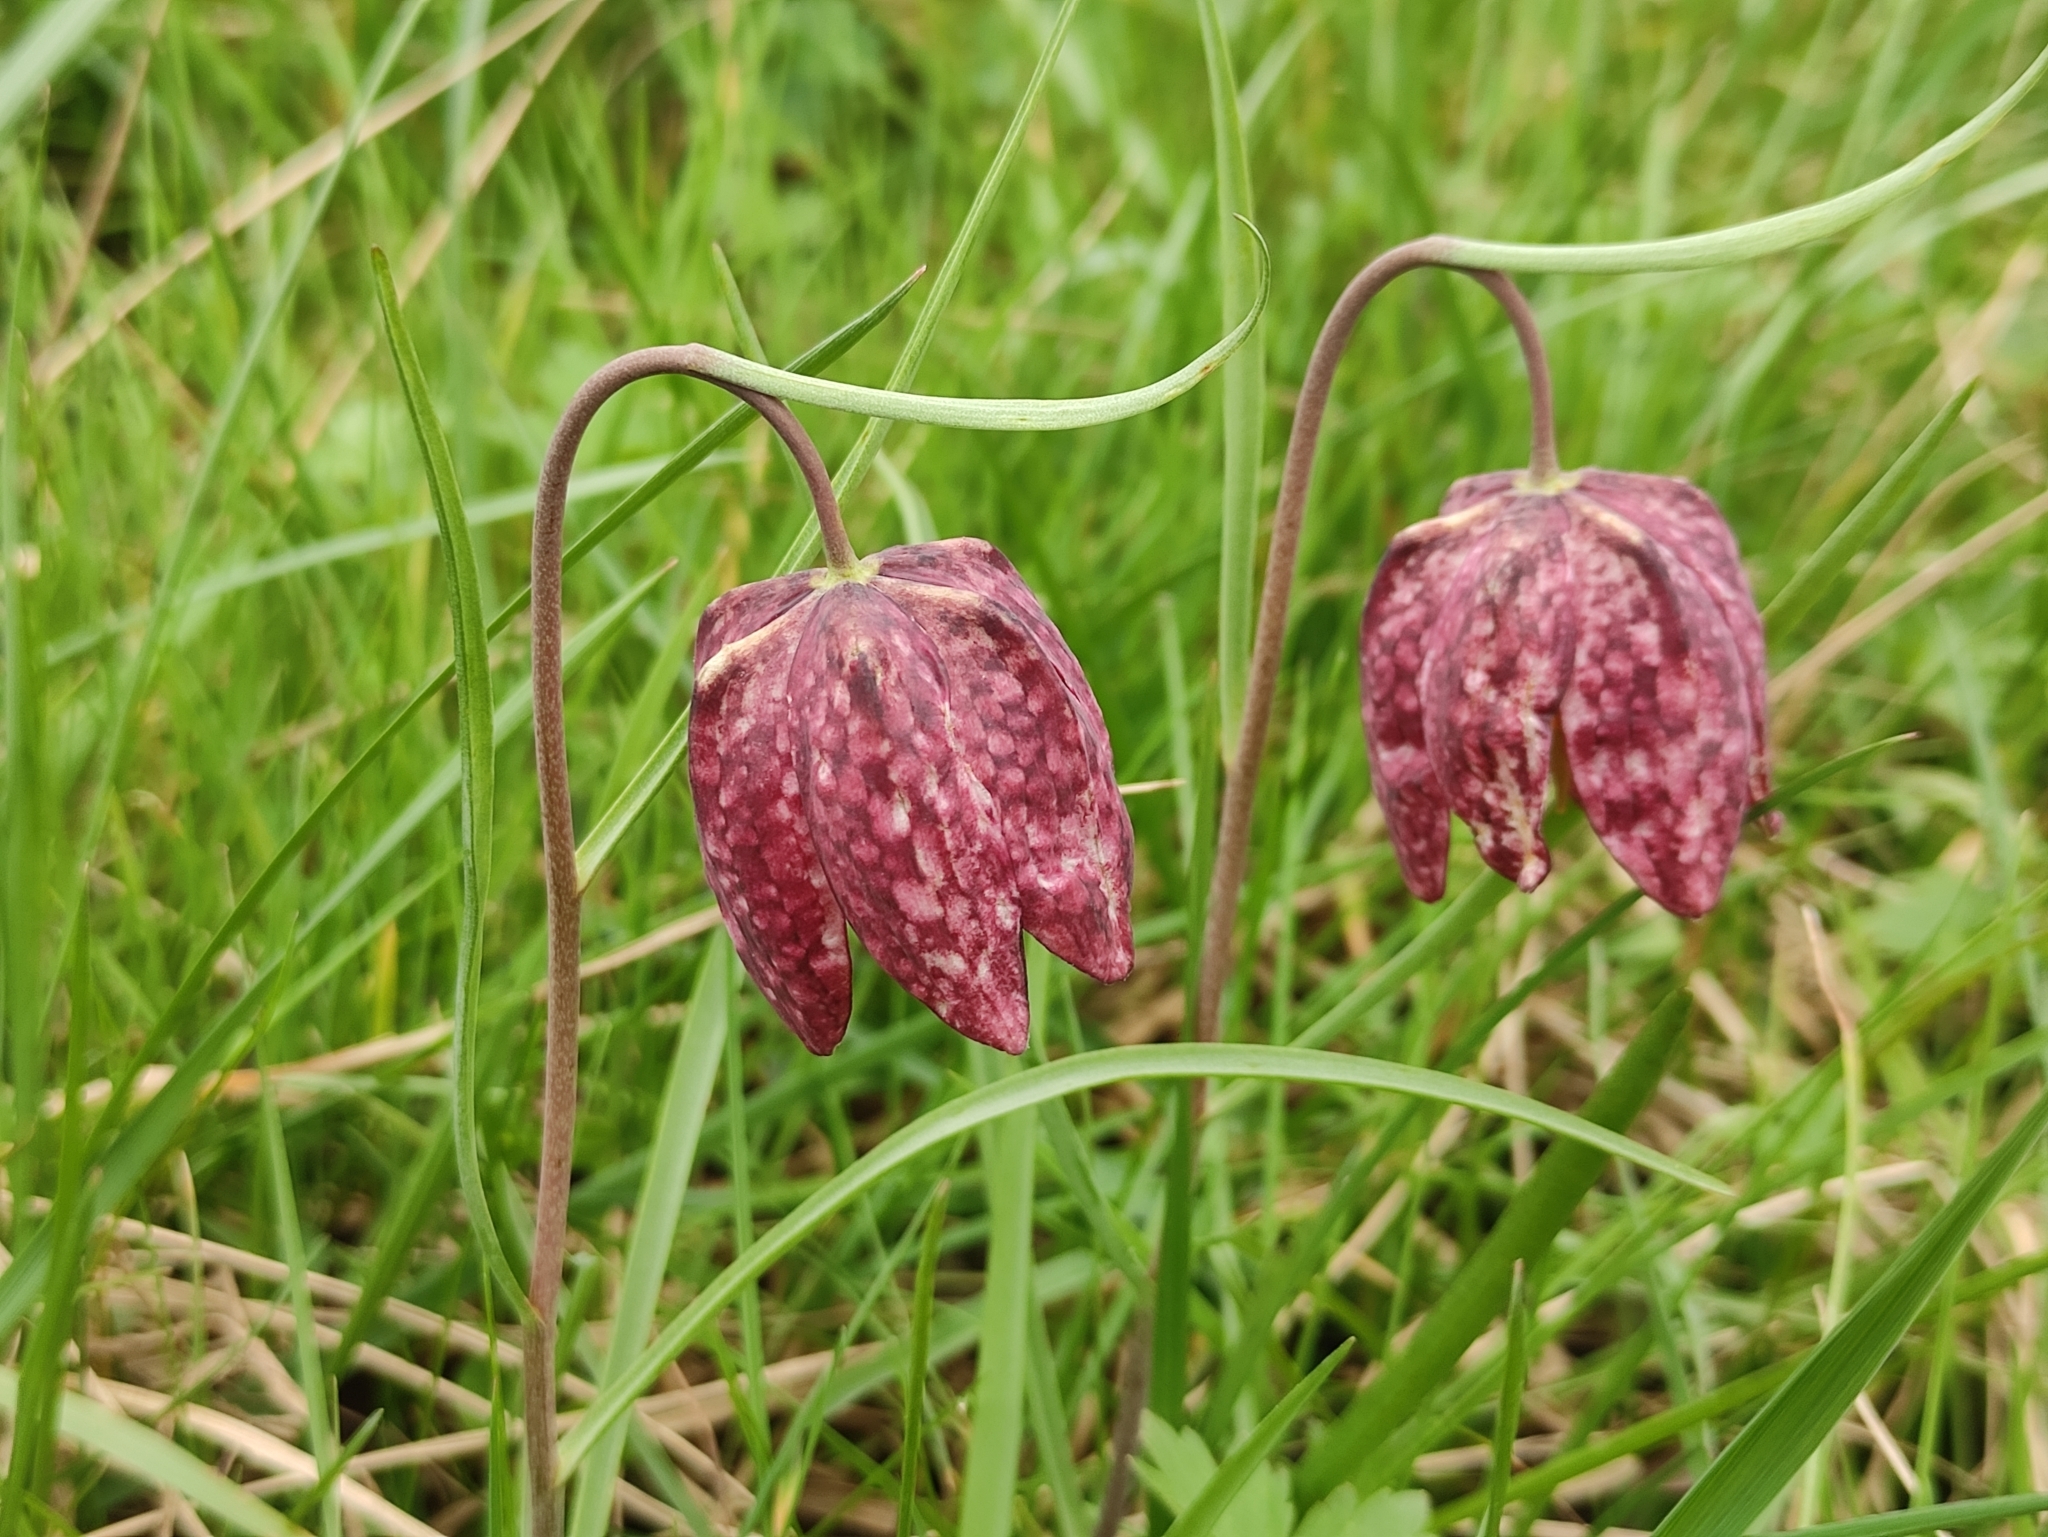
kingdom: Plantae
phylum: Tracheophyta
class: Liliopsida
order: Liliales
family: Liliaceae
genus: Fritillaria
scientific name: Fritillaria meleagris
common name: Fritillary
